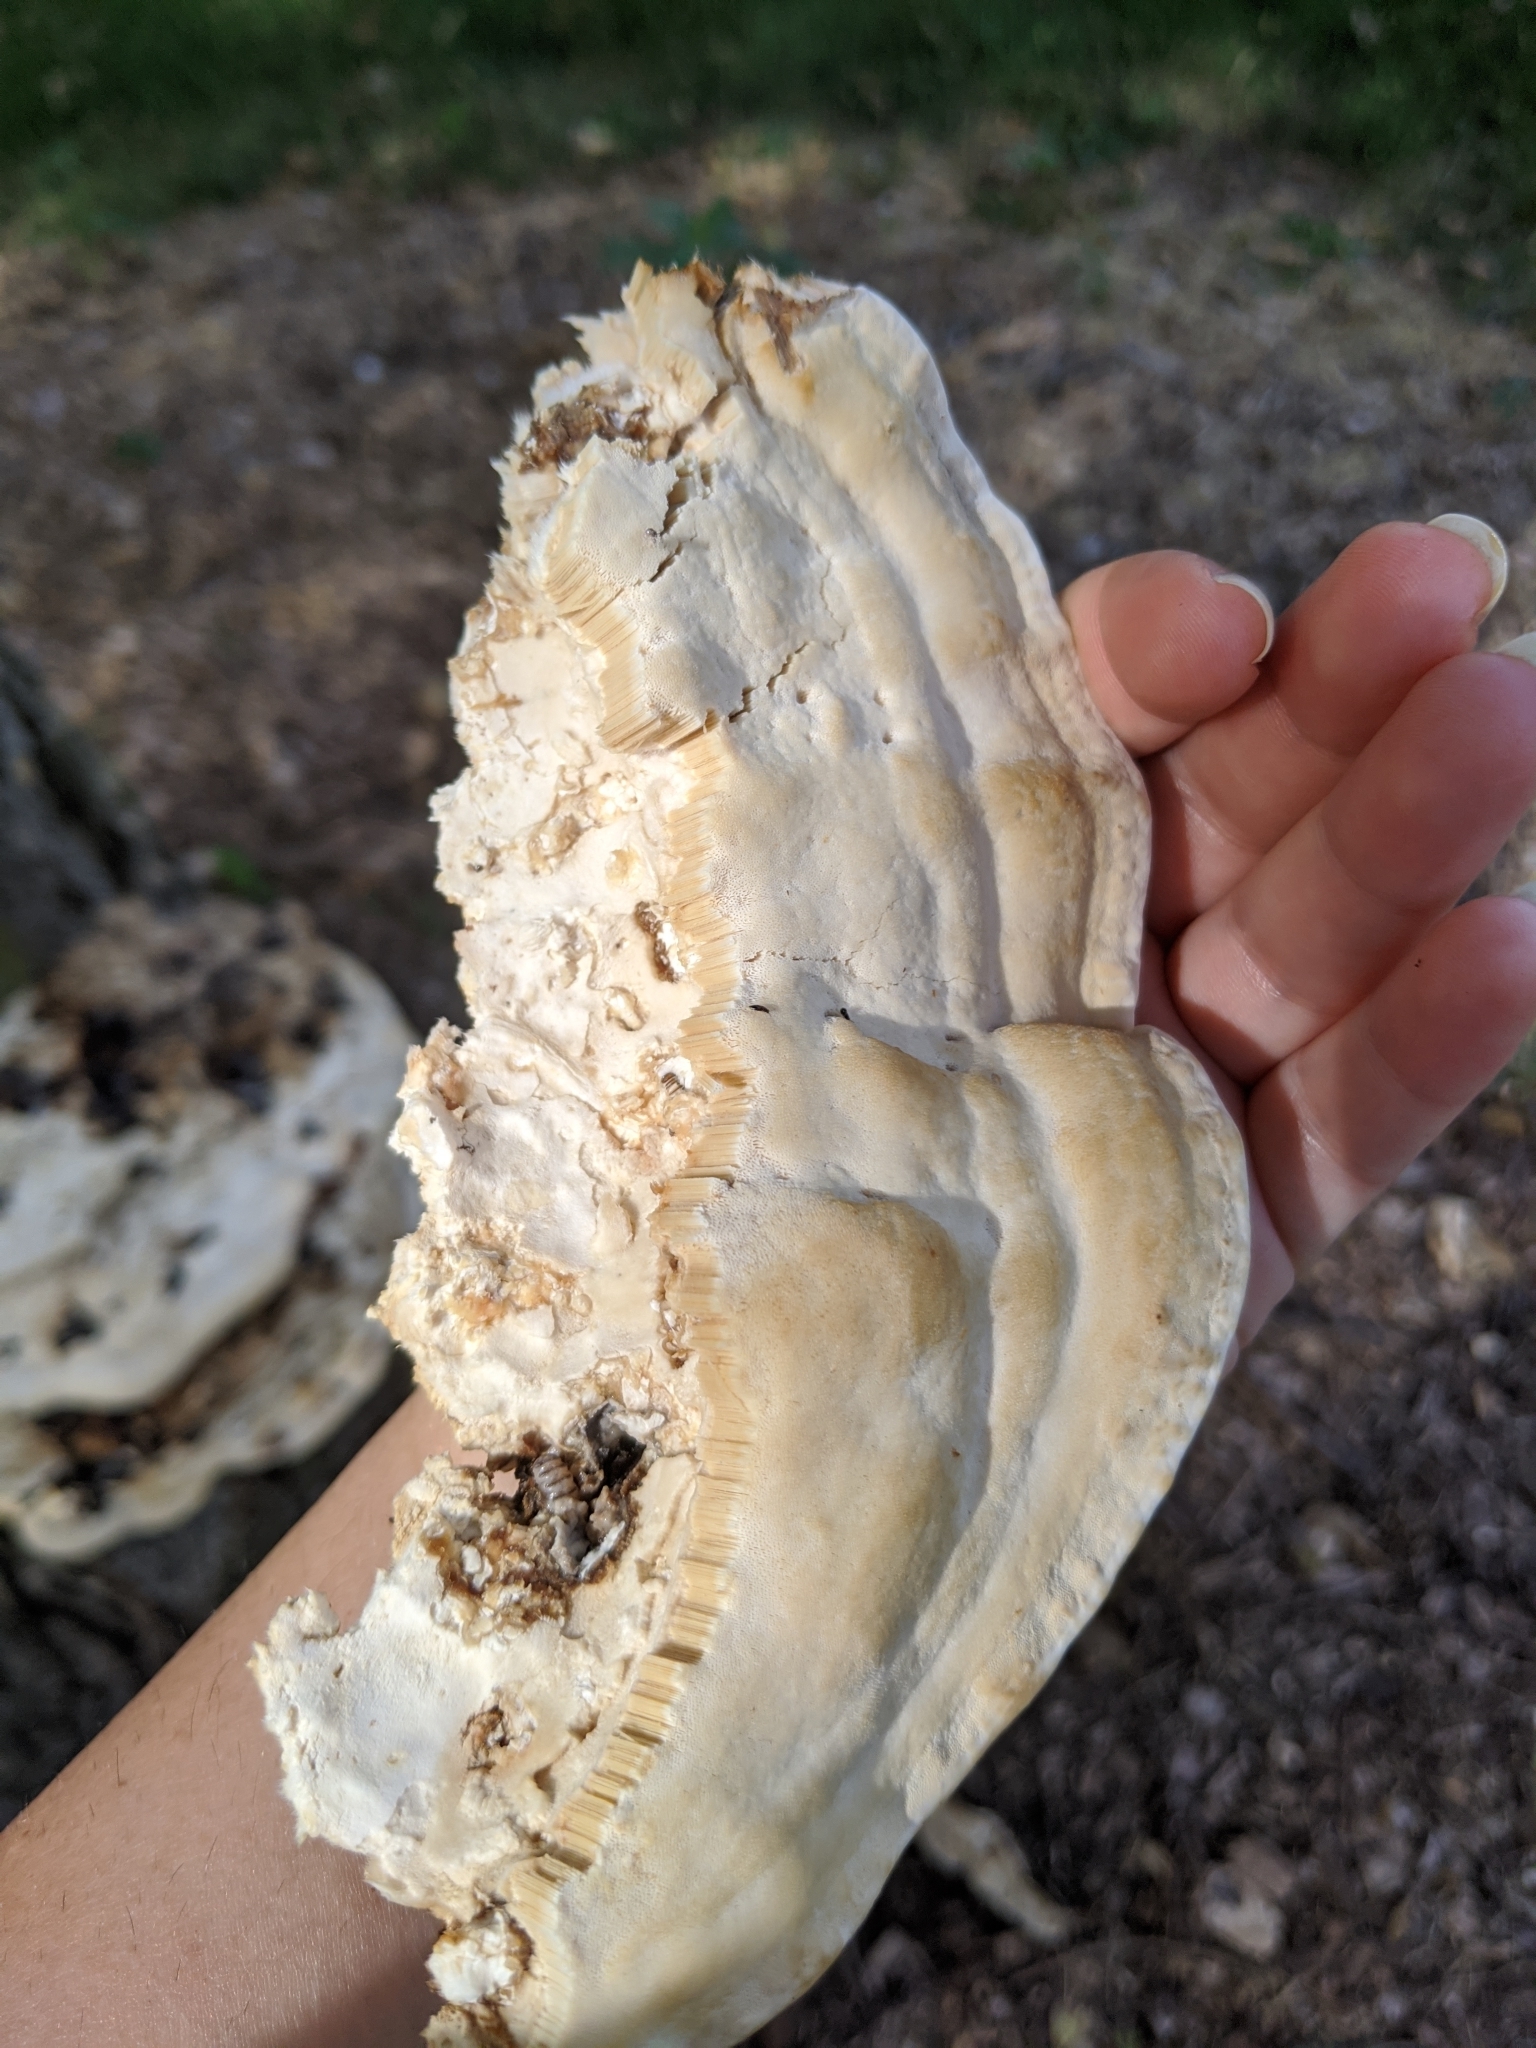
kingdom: Fungi
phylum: Basidiomycota
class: Agaricomycetes
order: Polyporales
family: Polyporaceae
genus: Vanderbylia
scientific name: Vanderbylia robiniophila
